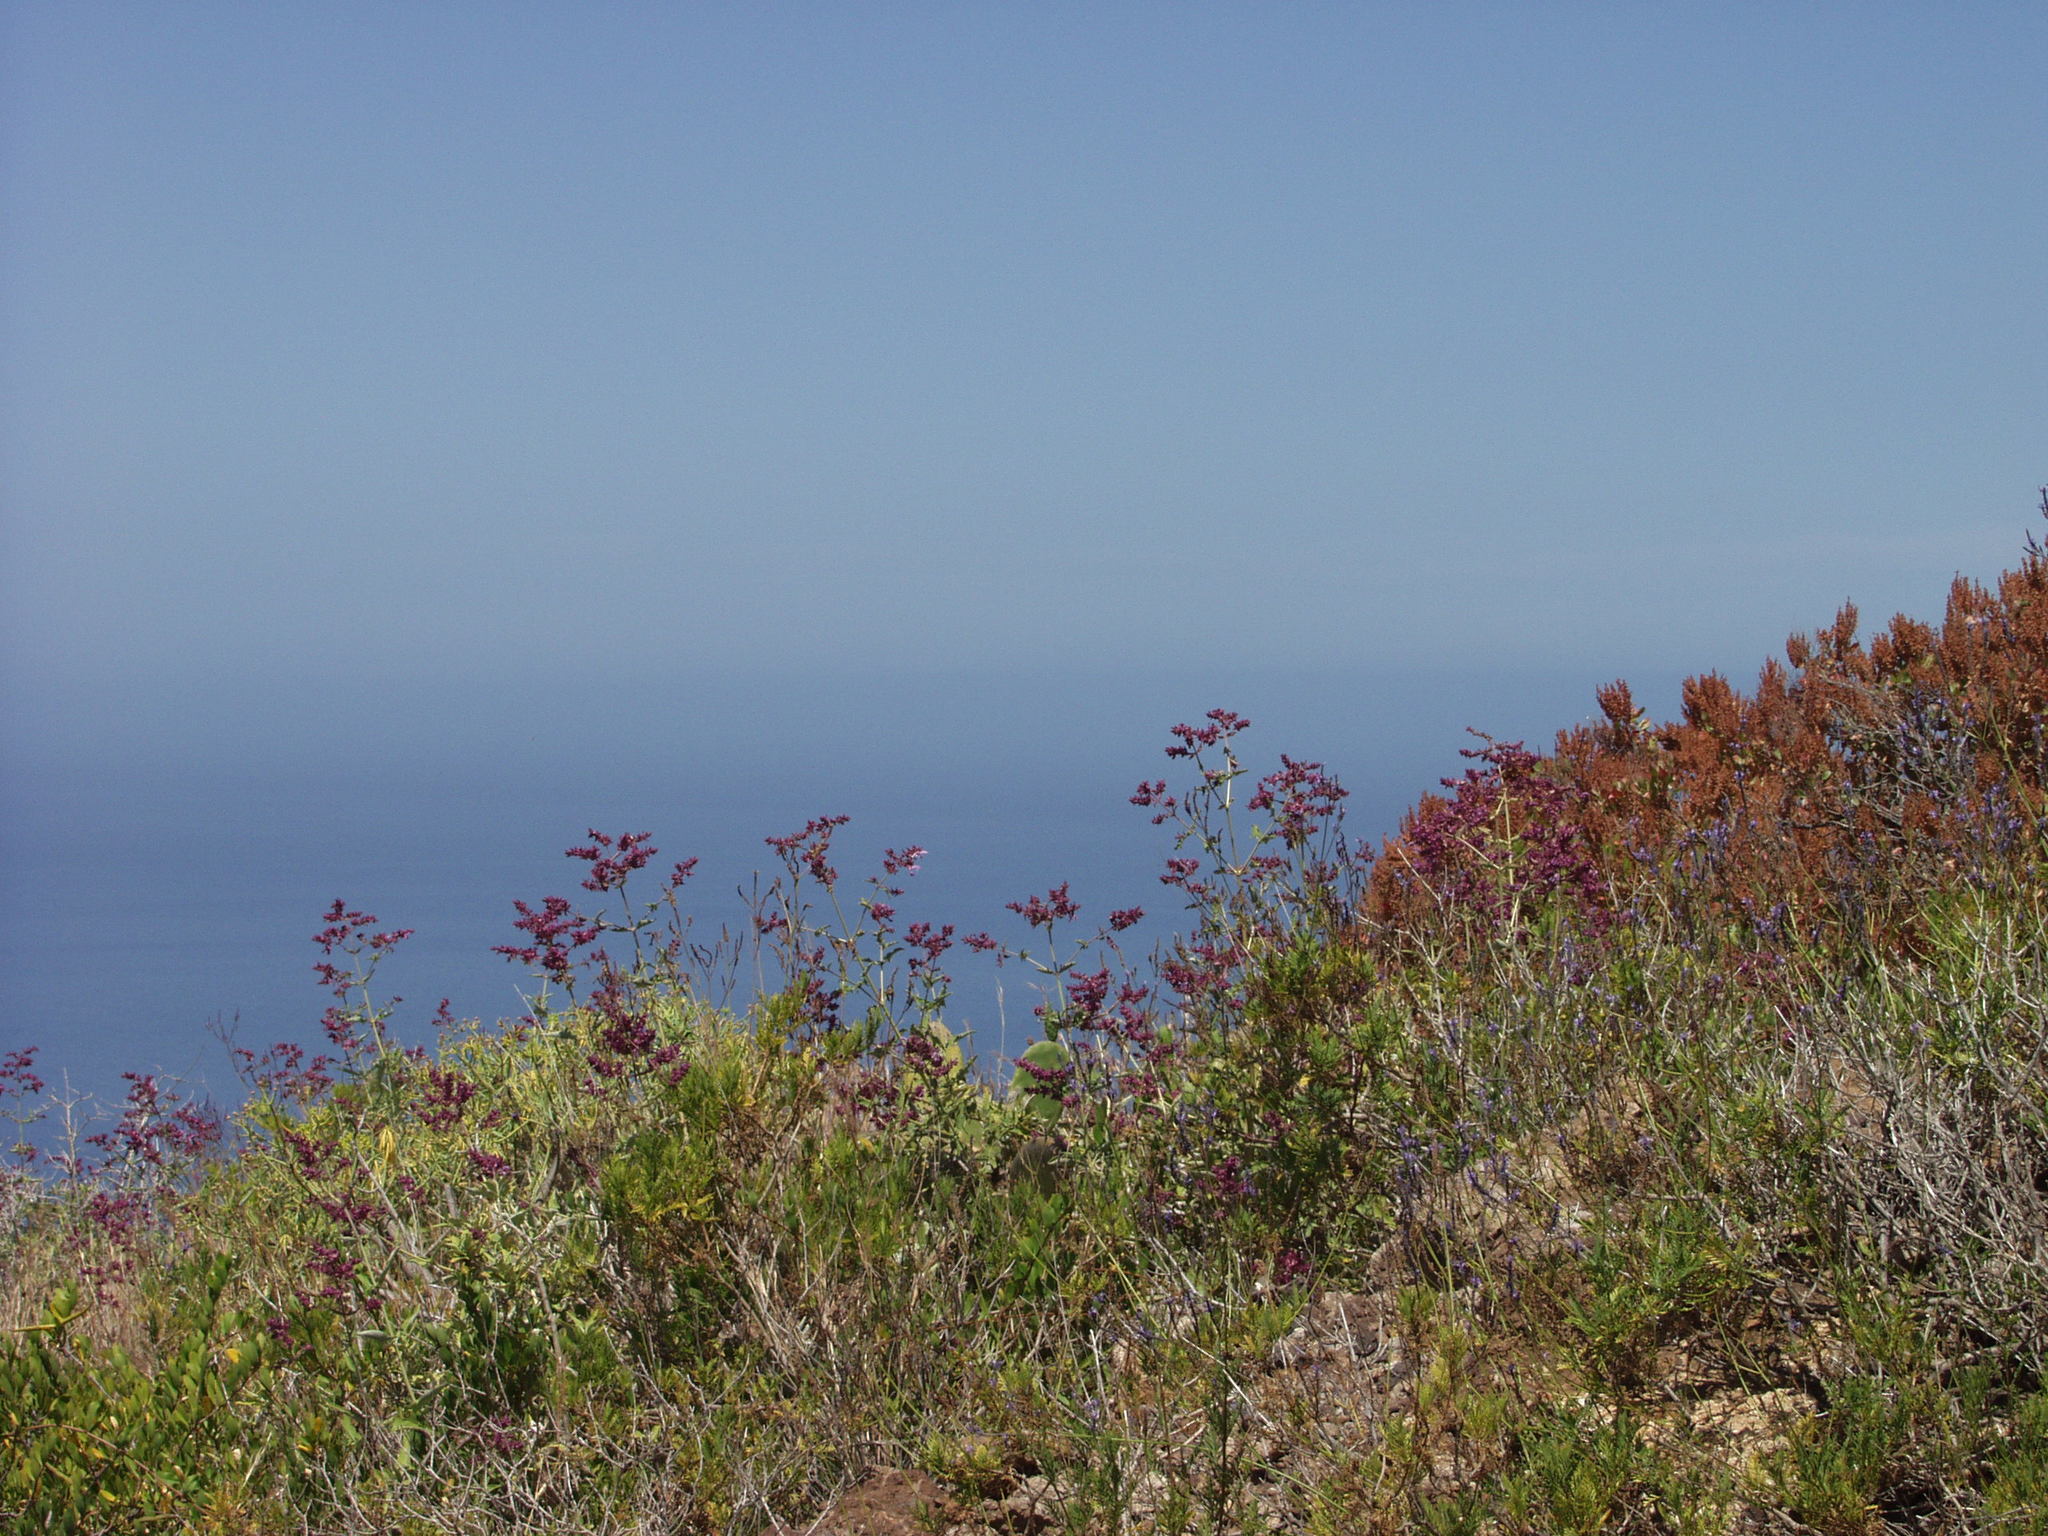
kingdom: Plantae
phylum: Tracheophyta
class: Magnoliopsida
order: Lamiales
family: Lamiaceae
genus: Salvia
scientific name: Salvia canariensis
